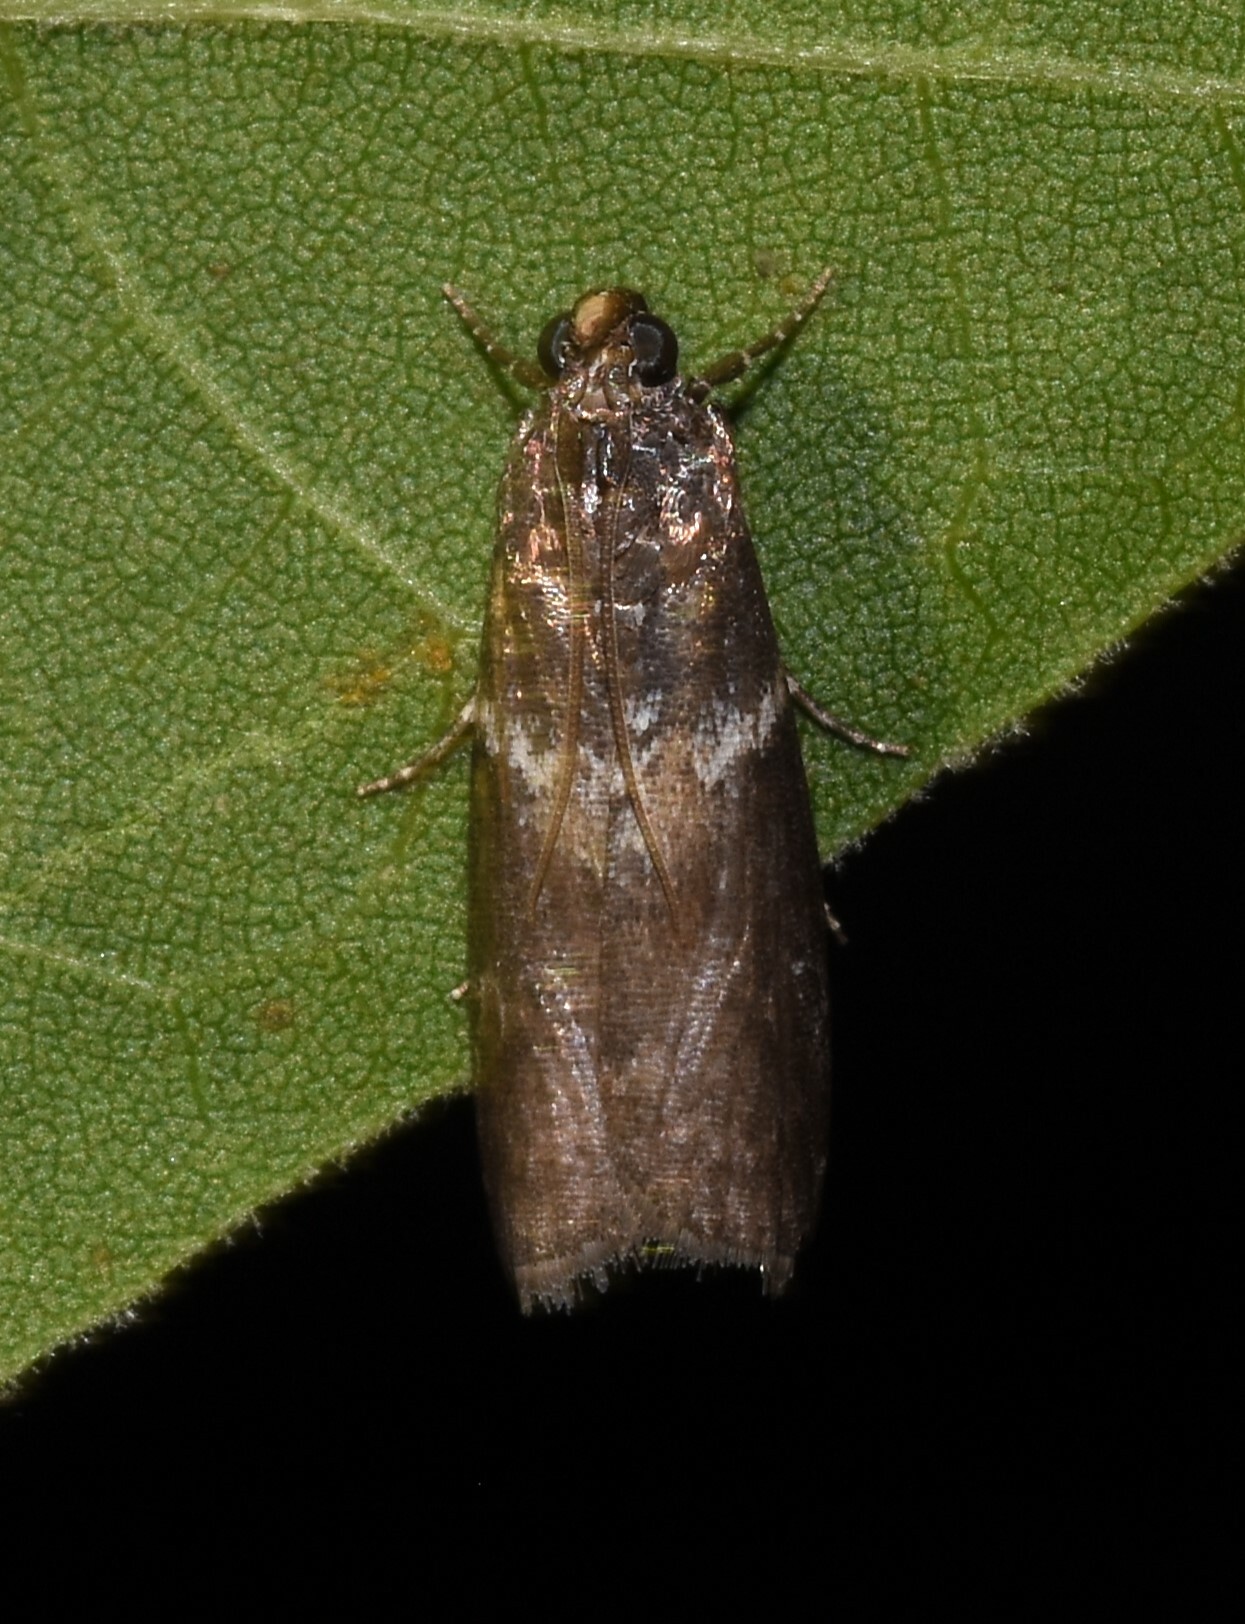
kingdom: Animalia
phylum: Arthropoda
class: Insecta
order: Lepidoptera
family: Pyralidae
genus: Sciota
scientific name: Sciota subcaesiella
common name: Locust leafroller
